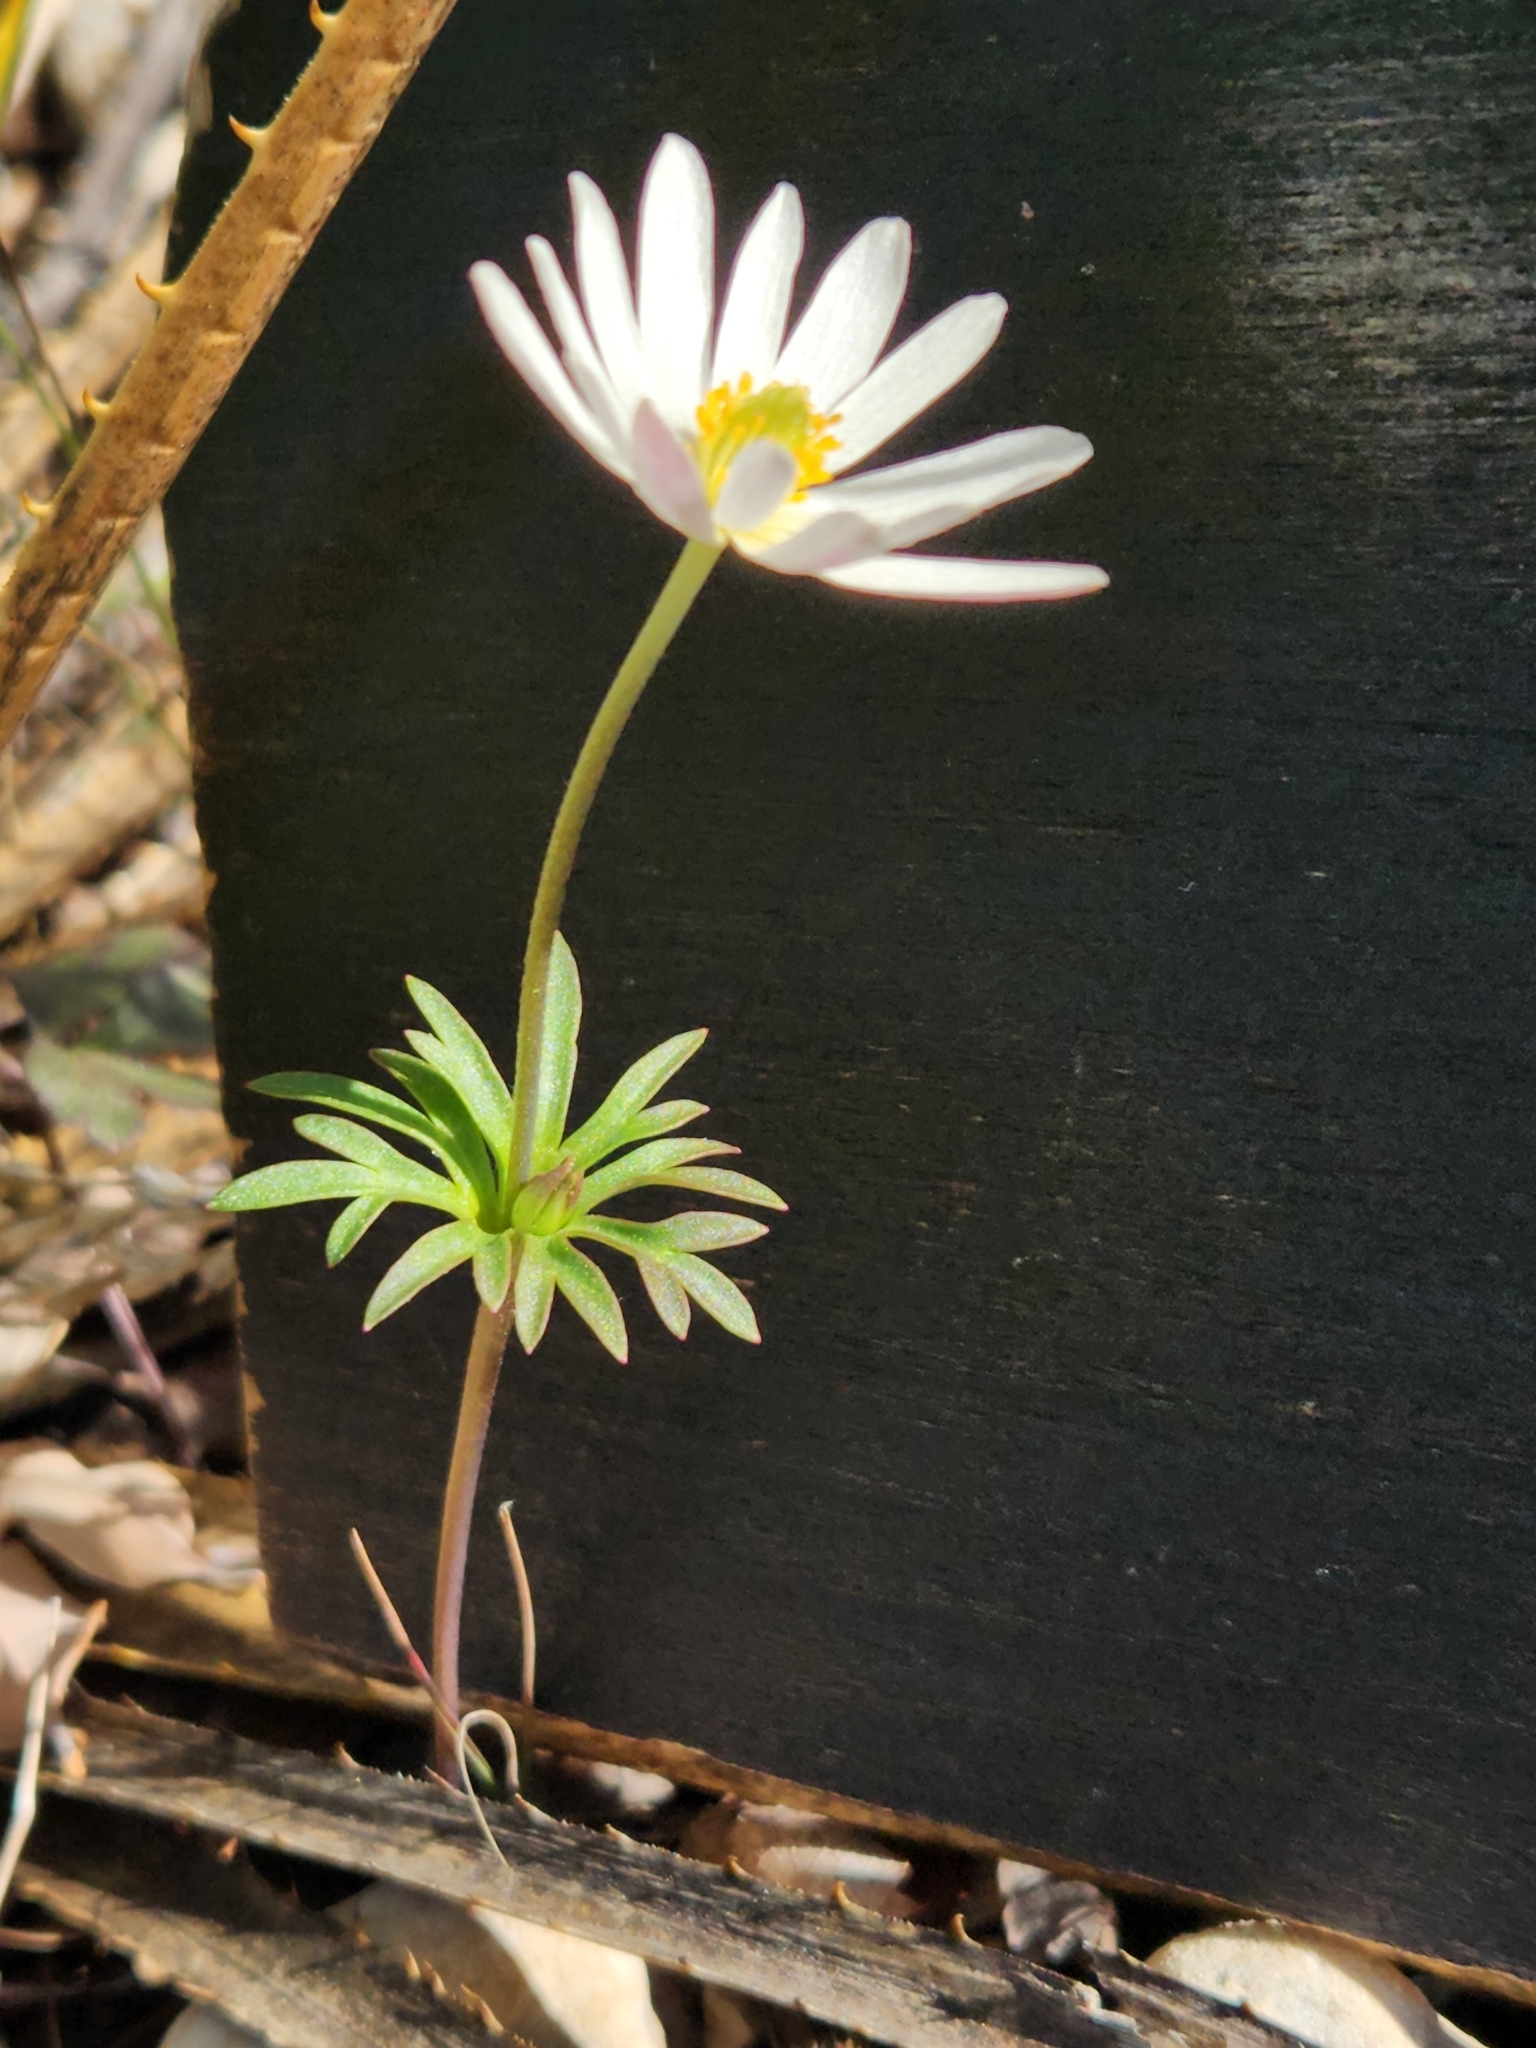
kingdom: Plantae
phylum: Tracheophyta
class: Magnoliopsida
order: Ranunculales
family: Ranunculaceae
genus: Anemone
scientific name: Anemone edwardsiana
